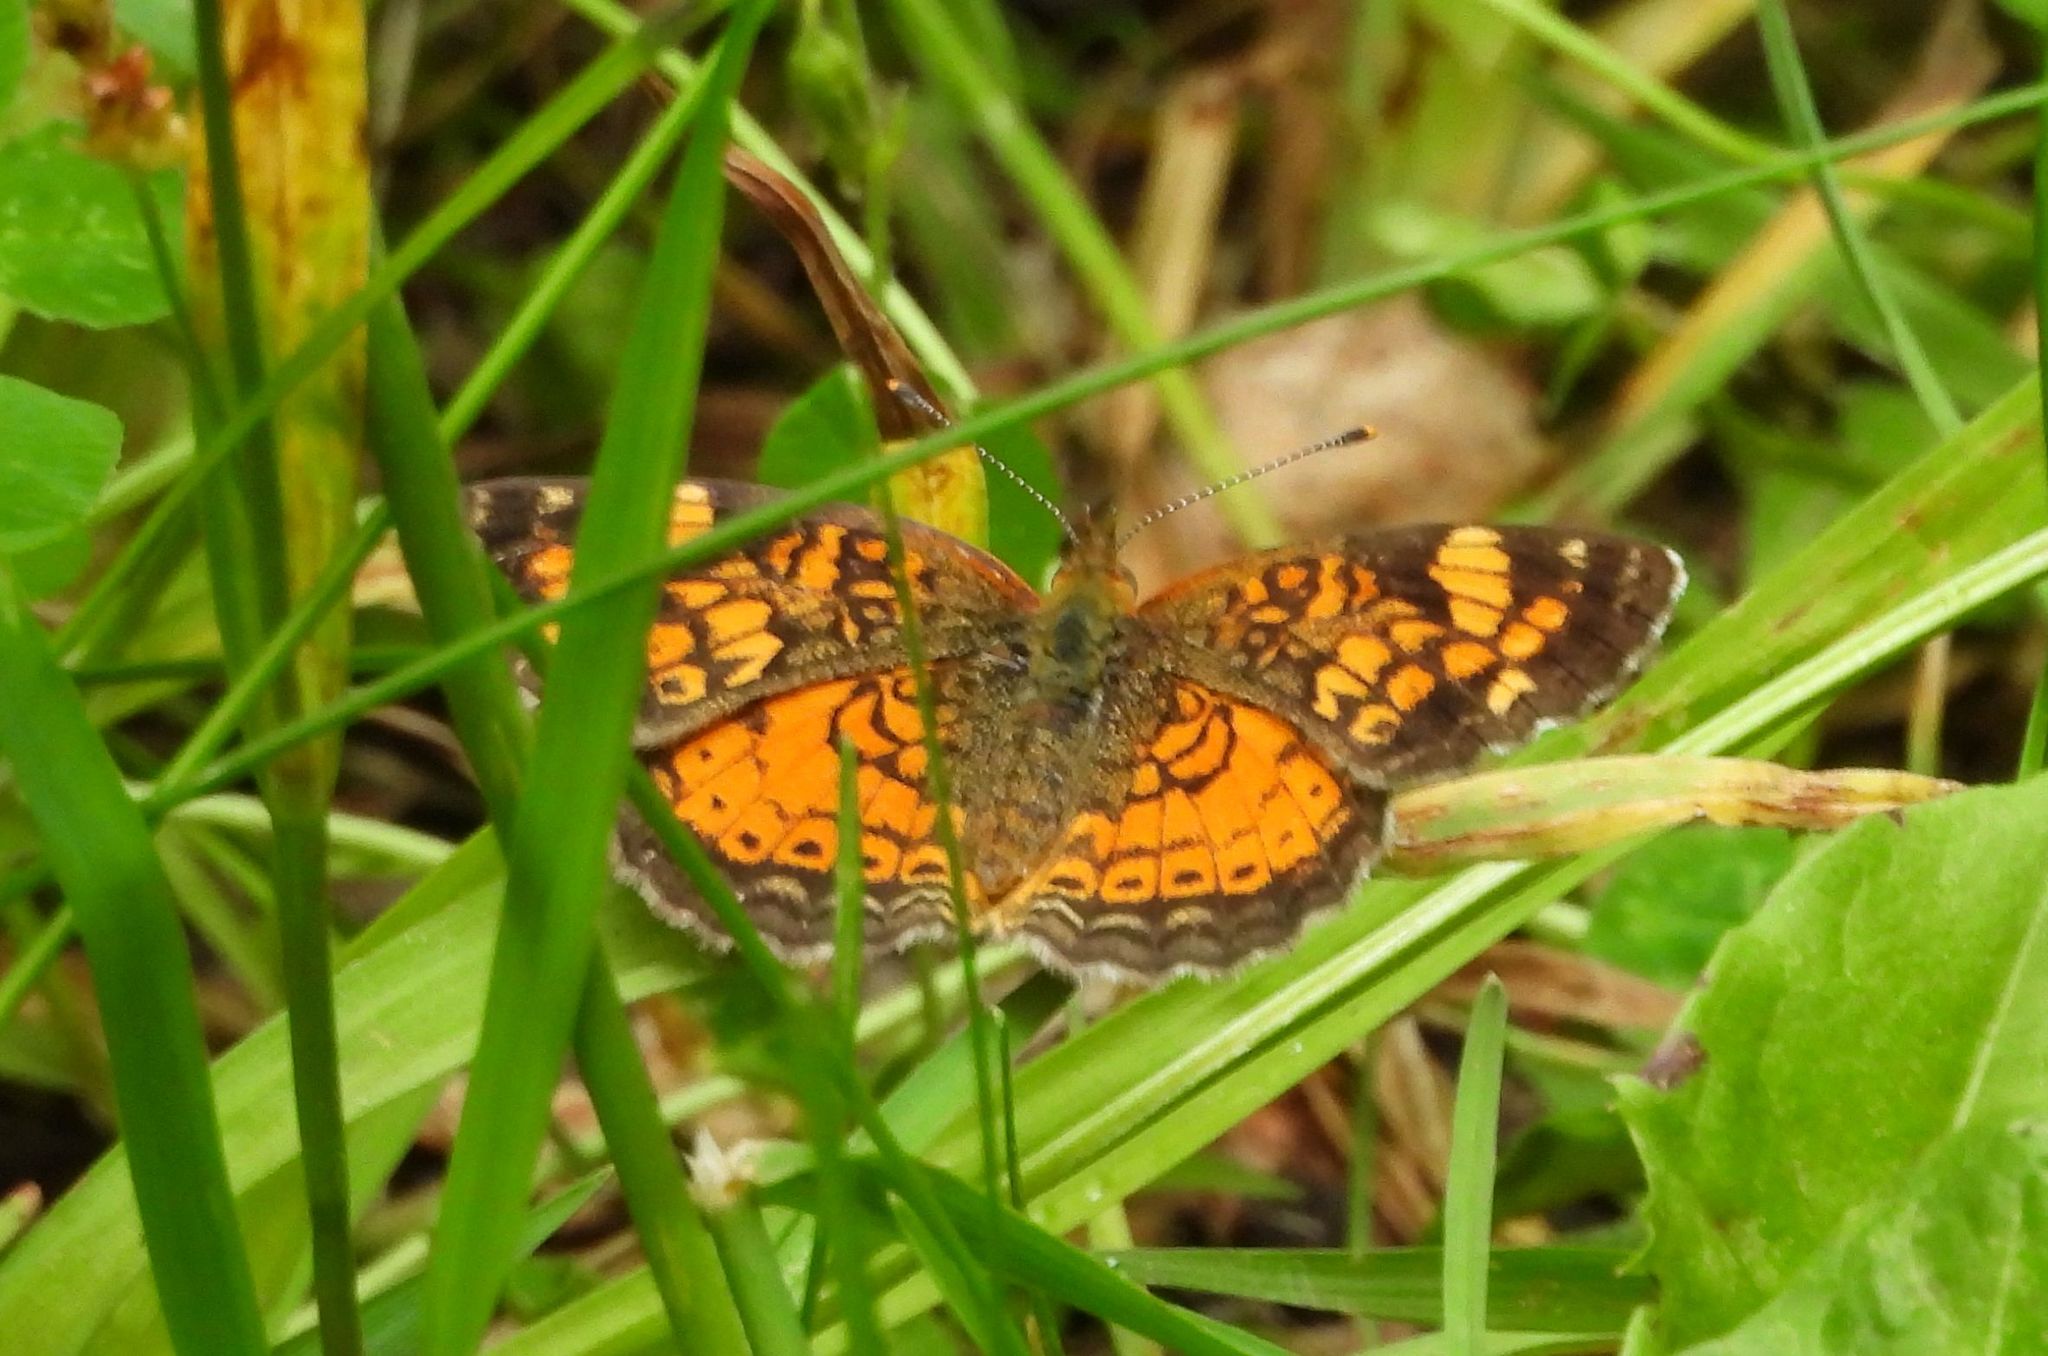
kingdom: Animalia
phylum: Arthropoda
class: Insecta
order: Lepidoptera
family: Nymphalidae
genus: Phyciodes
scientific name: Phyciodes tharos
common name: Pearl crescent
